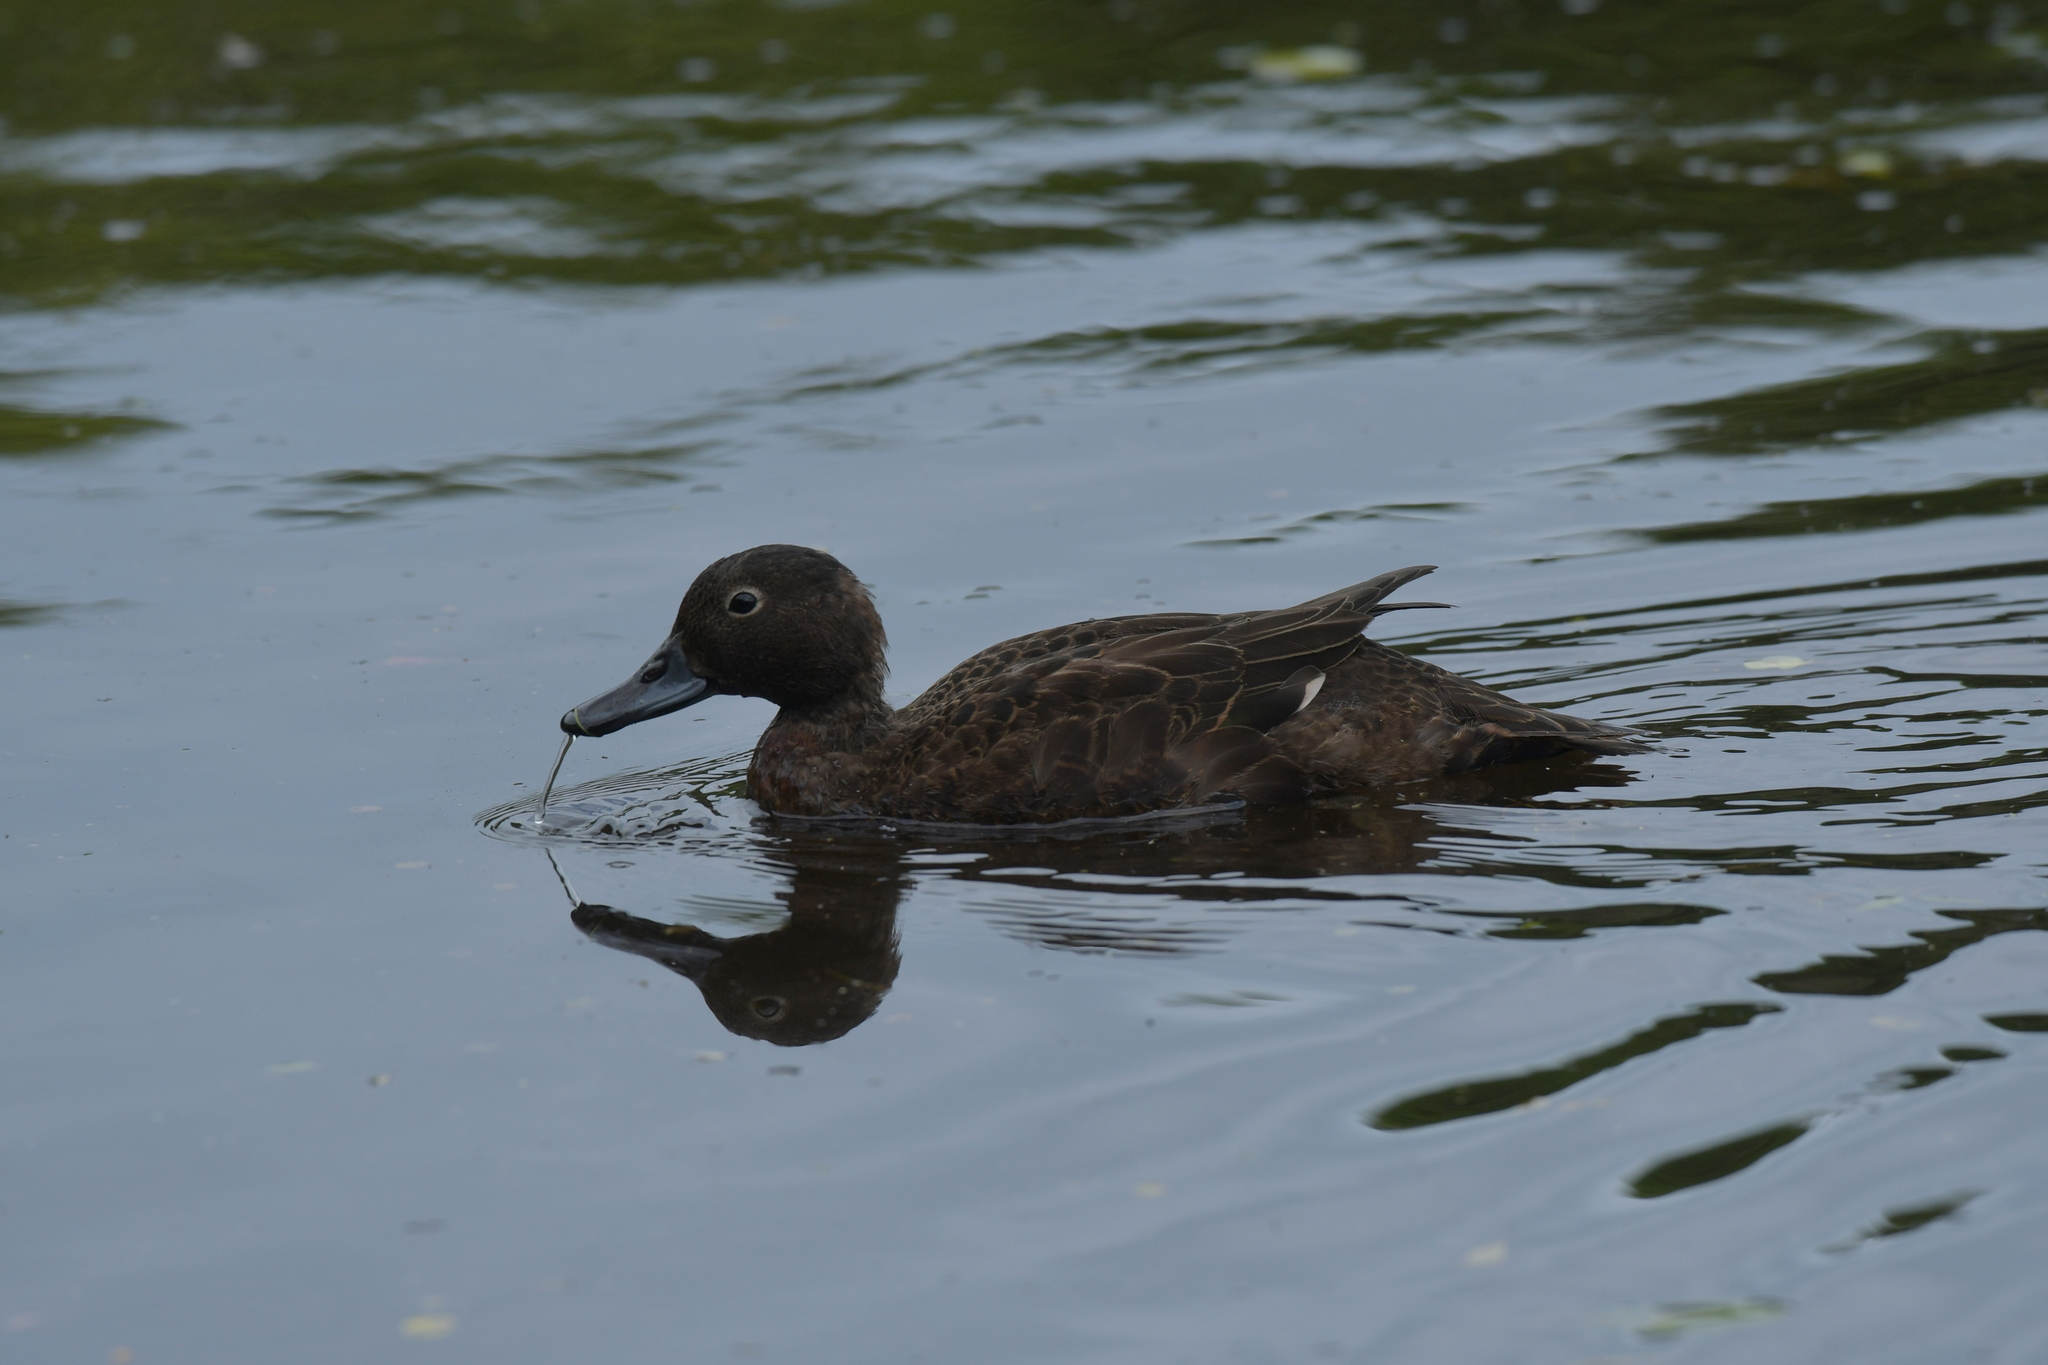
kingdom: Animalia
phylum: Chordata
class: Aves
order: Anseriformes
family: Anatidae
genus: Anas
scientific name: Anas chlorotis
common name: Brown teal
